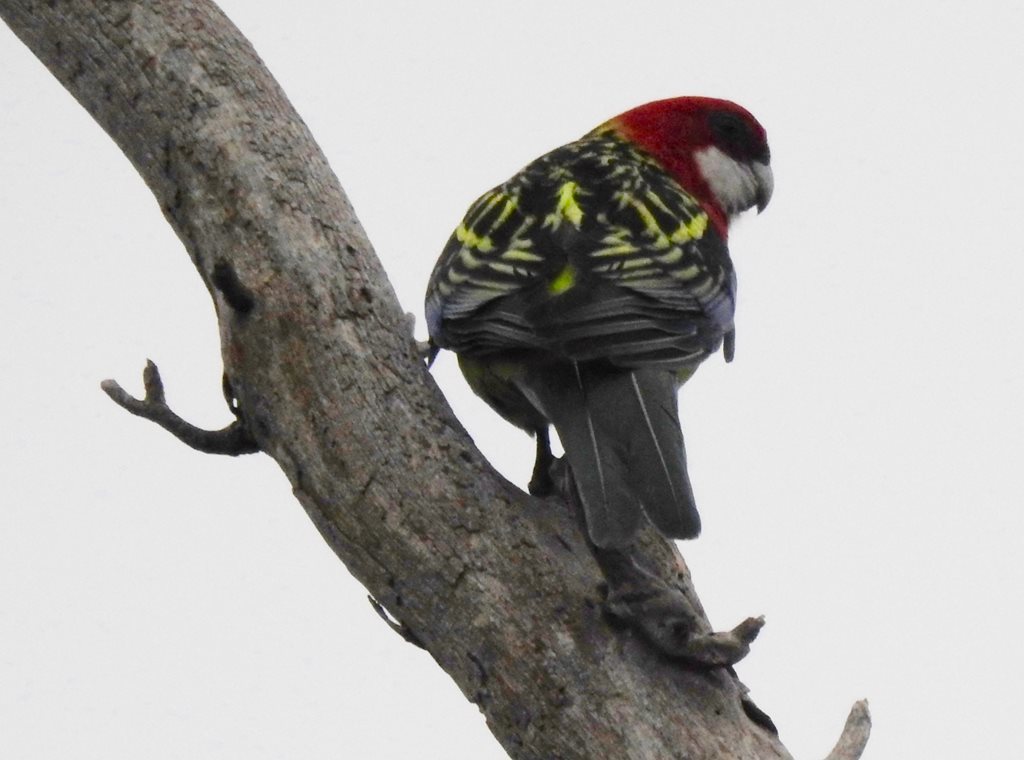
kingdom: Animalia
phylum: Chordata
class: Aves
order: Psittaciformes
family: Psittacidae
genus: Platycercus
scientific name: Platycercus eximius
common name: Eastern rosella
